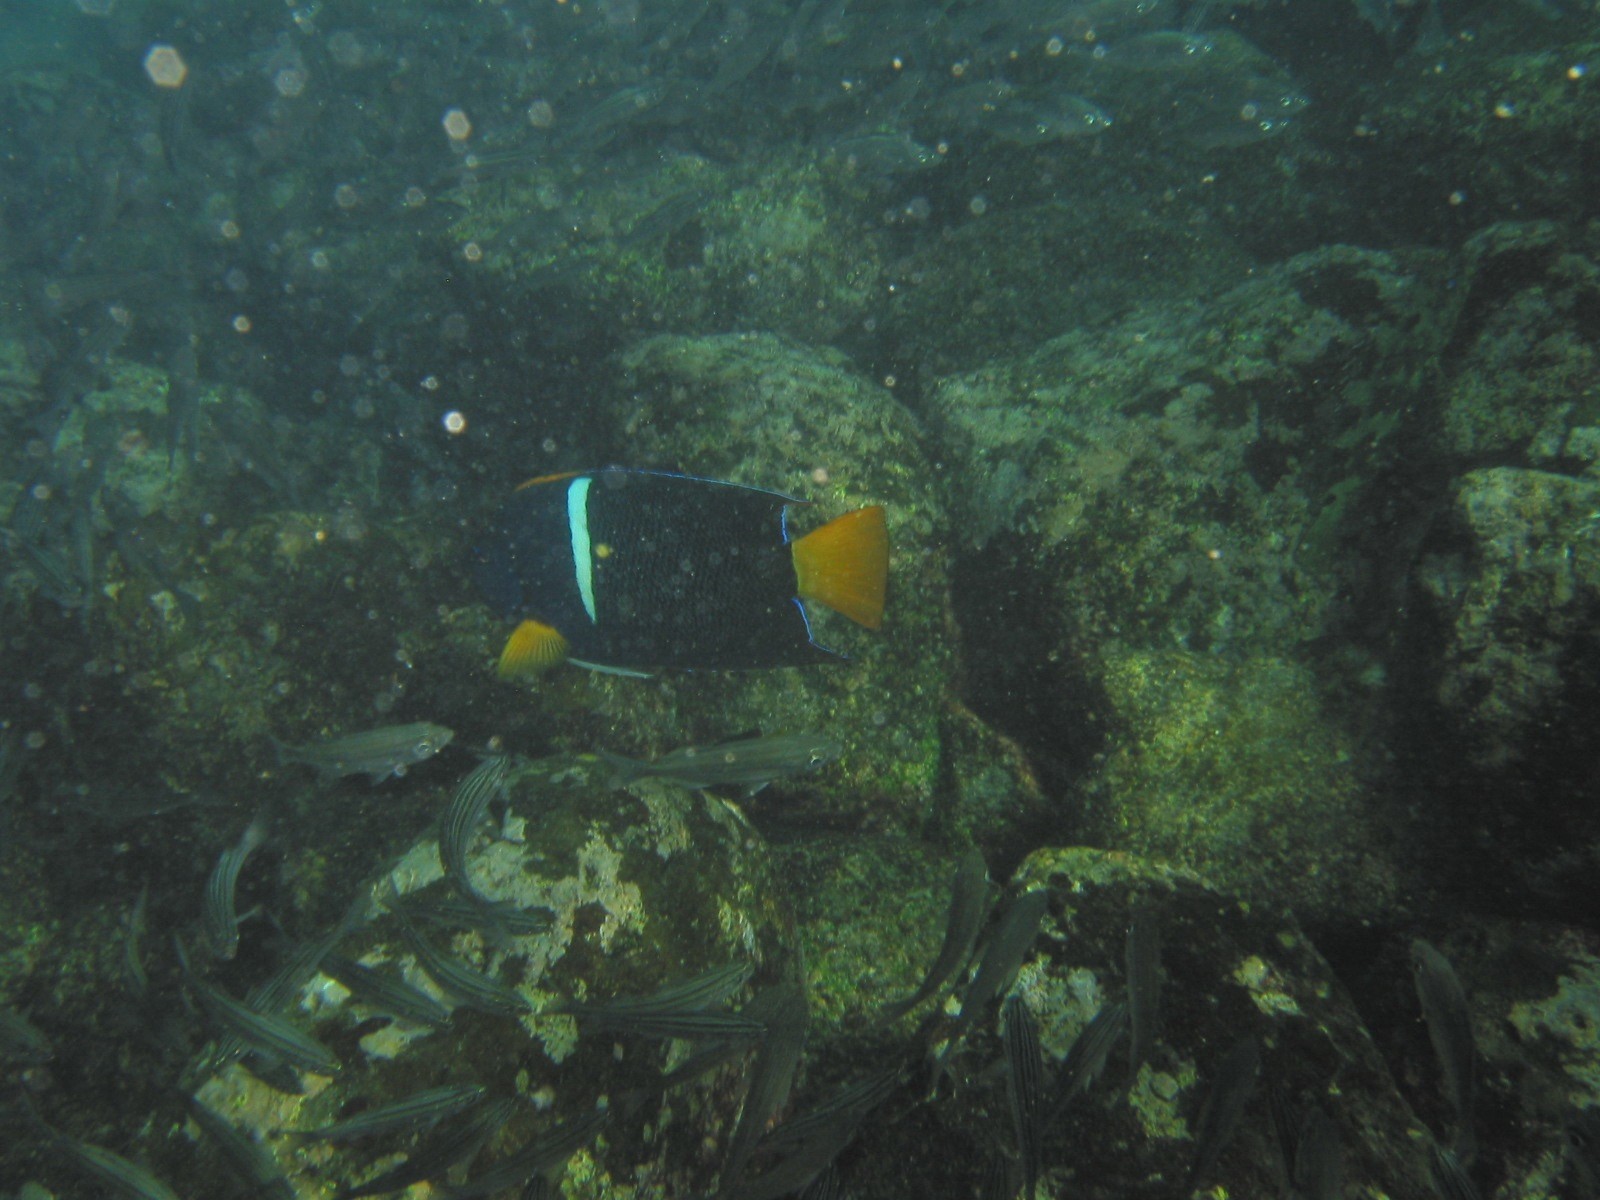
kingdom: Animalia
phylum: Chordata
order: Perciformes
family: Pomacanthidae
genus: Holacanthus
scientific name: Holacanthus passer
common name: King angelfish
